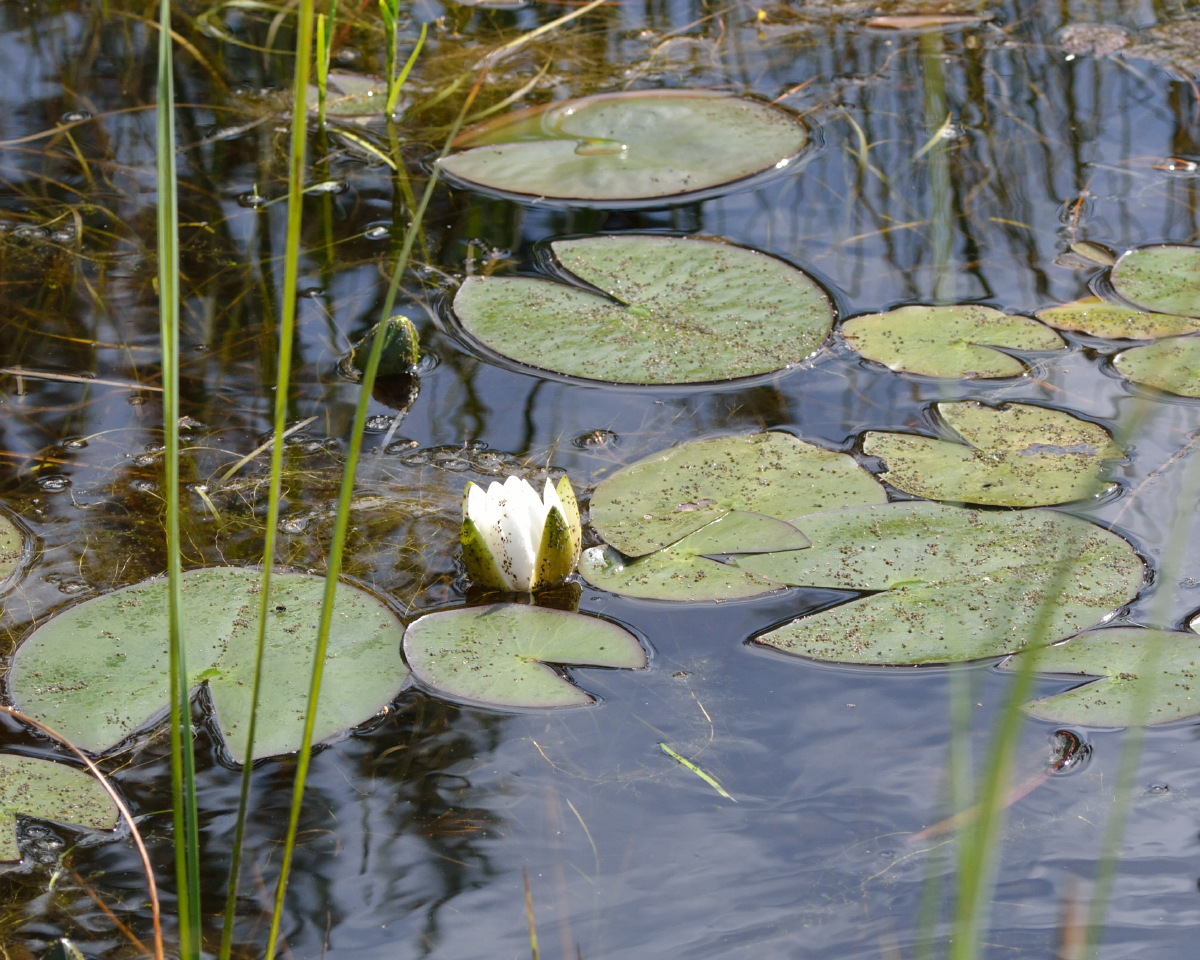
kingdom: Plantae
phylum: Tracheophyta
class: Magnoliopsida
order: Nymphaeales
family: Nymphaeaceae
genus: Nymphaea
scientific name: Nymphaea candida
